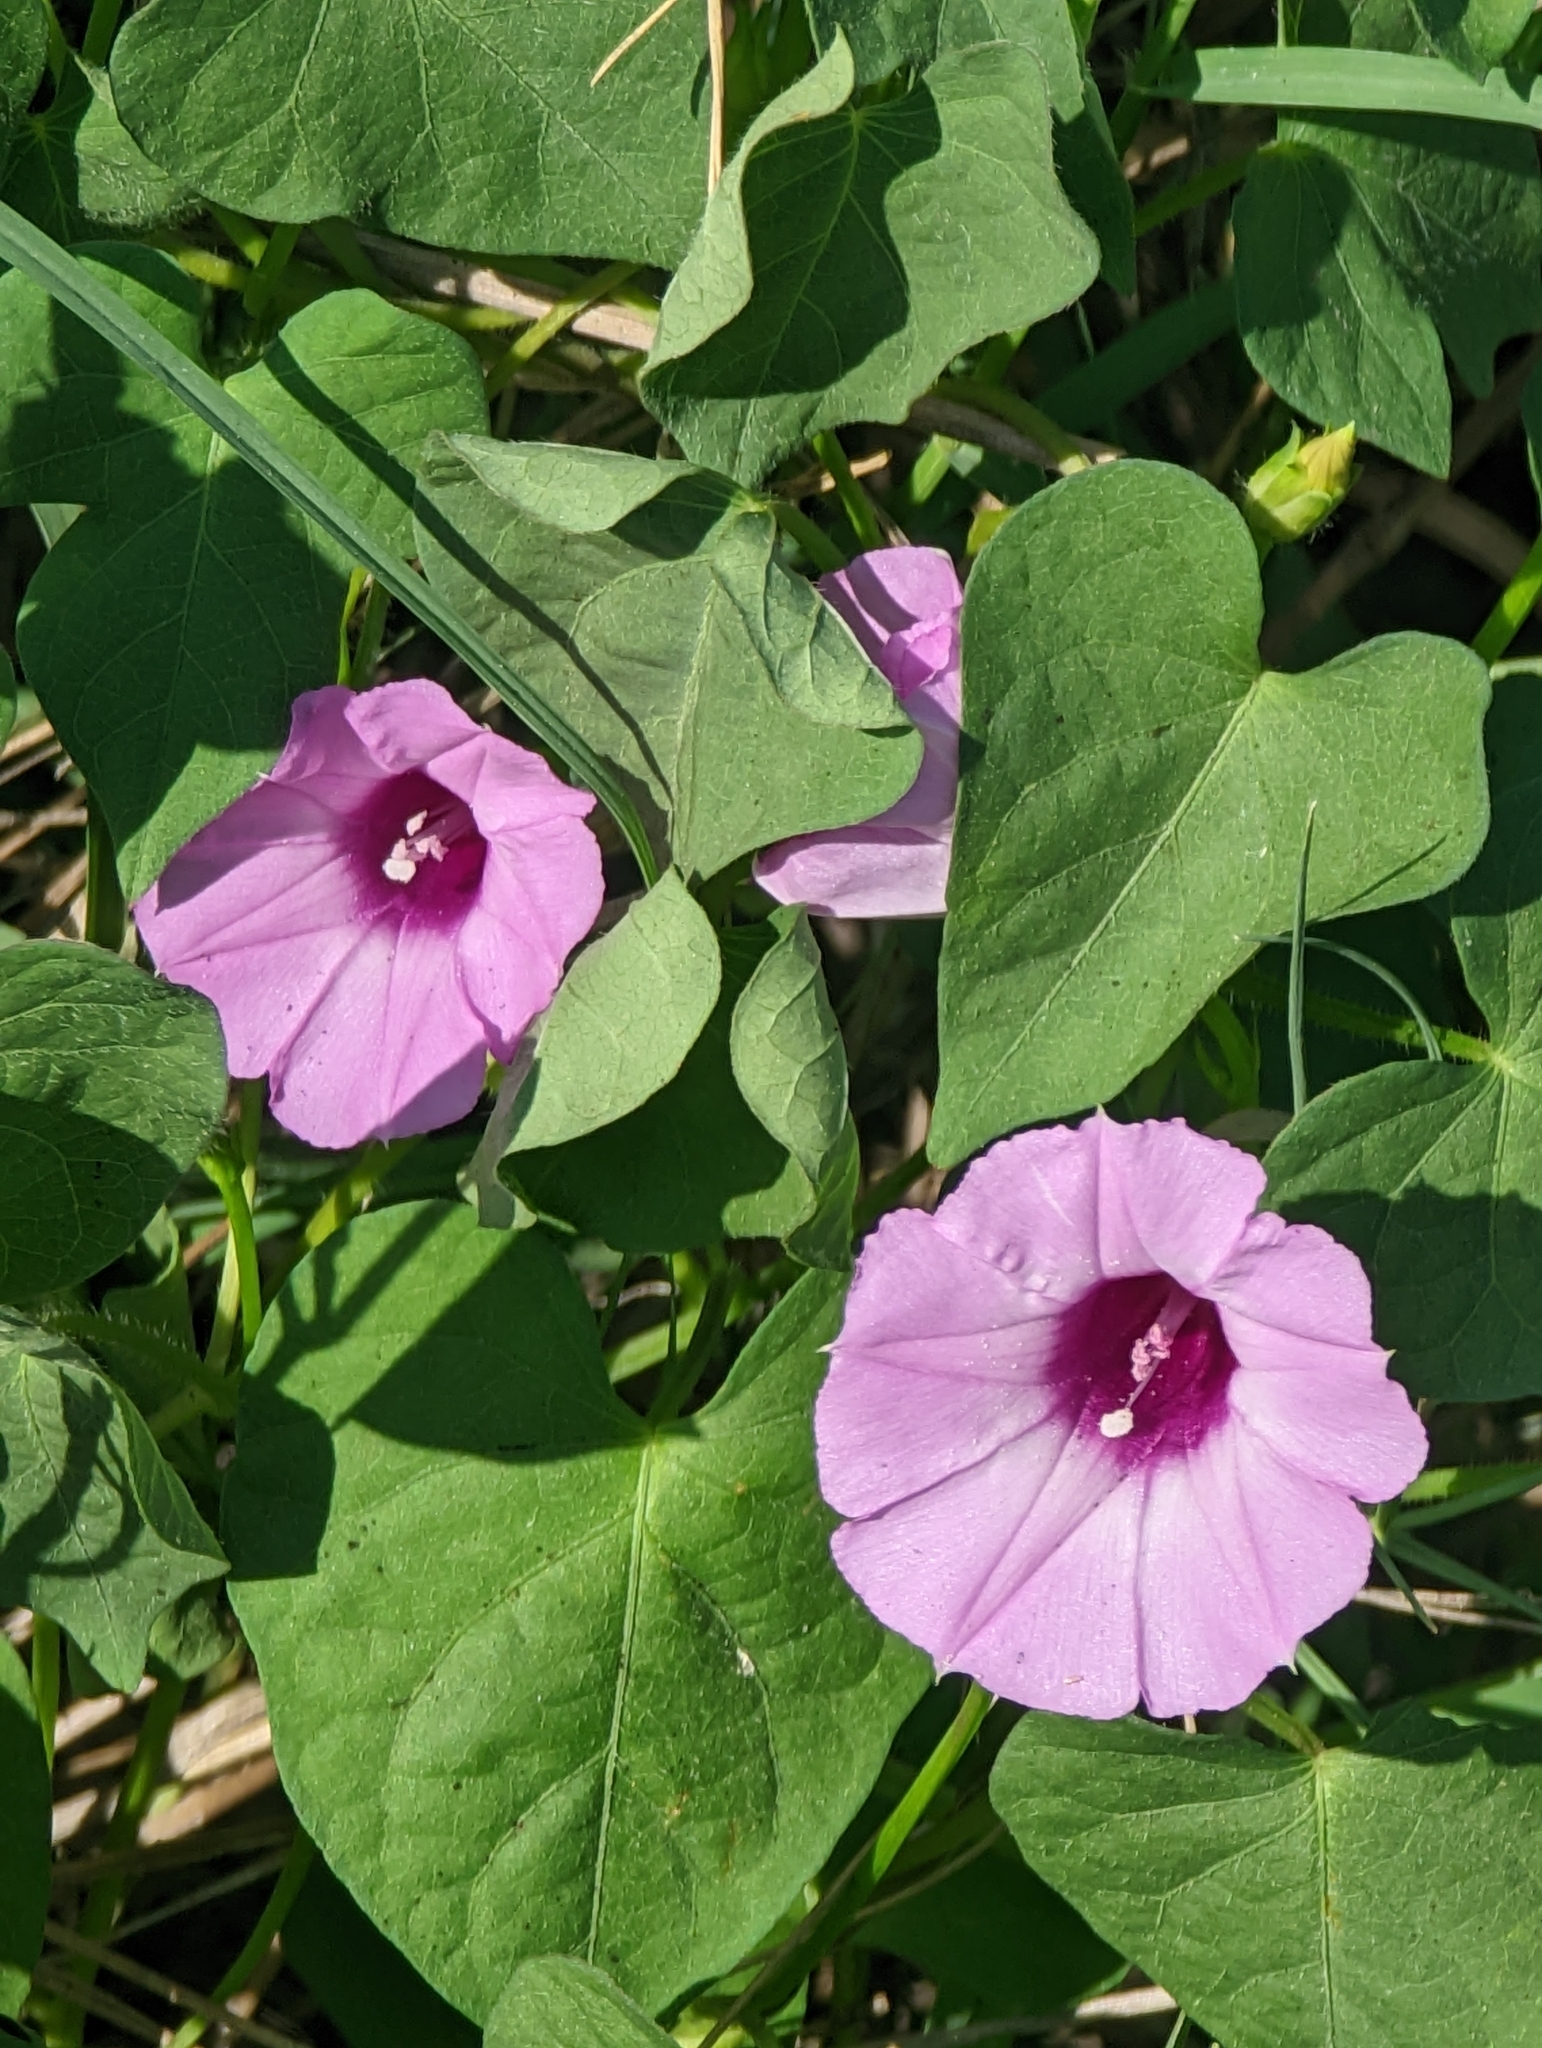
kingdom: Plantae
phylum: Tracheophyta
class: Magnoliopsida
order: Solanales
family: Convolvulaceae
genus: Ipomoea
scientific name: Ipomoea cordatotriloba
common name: Cotton morning glory
